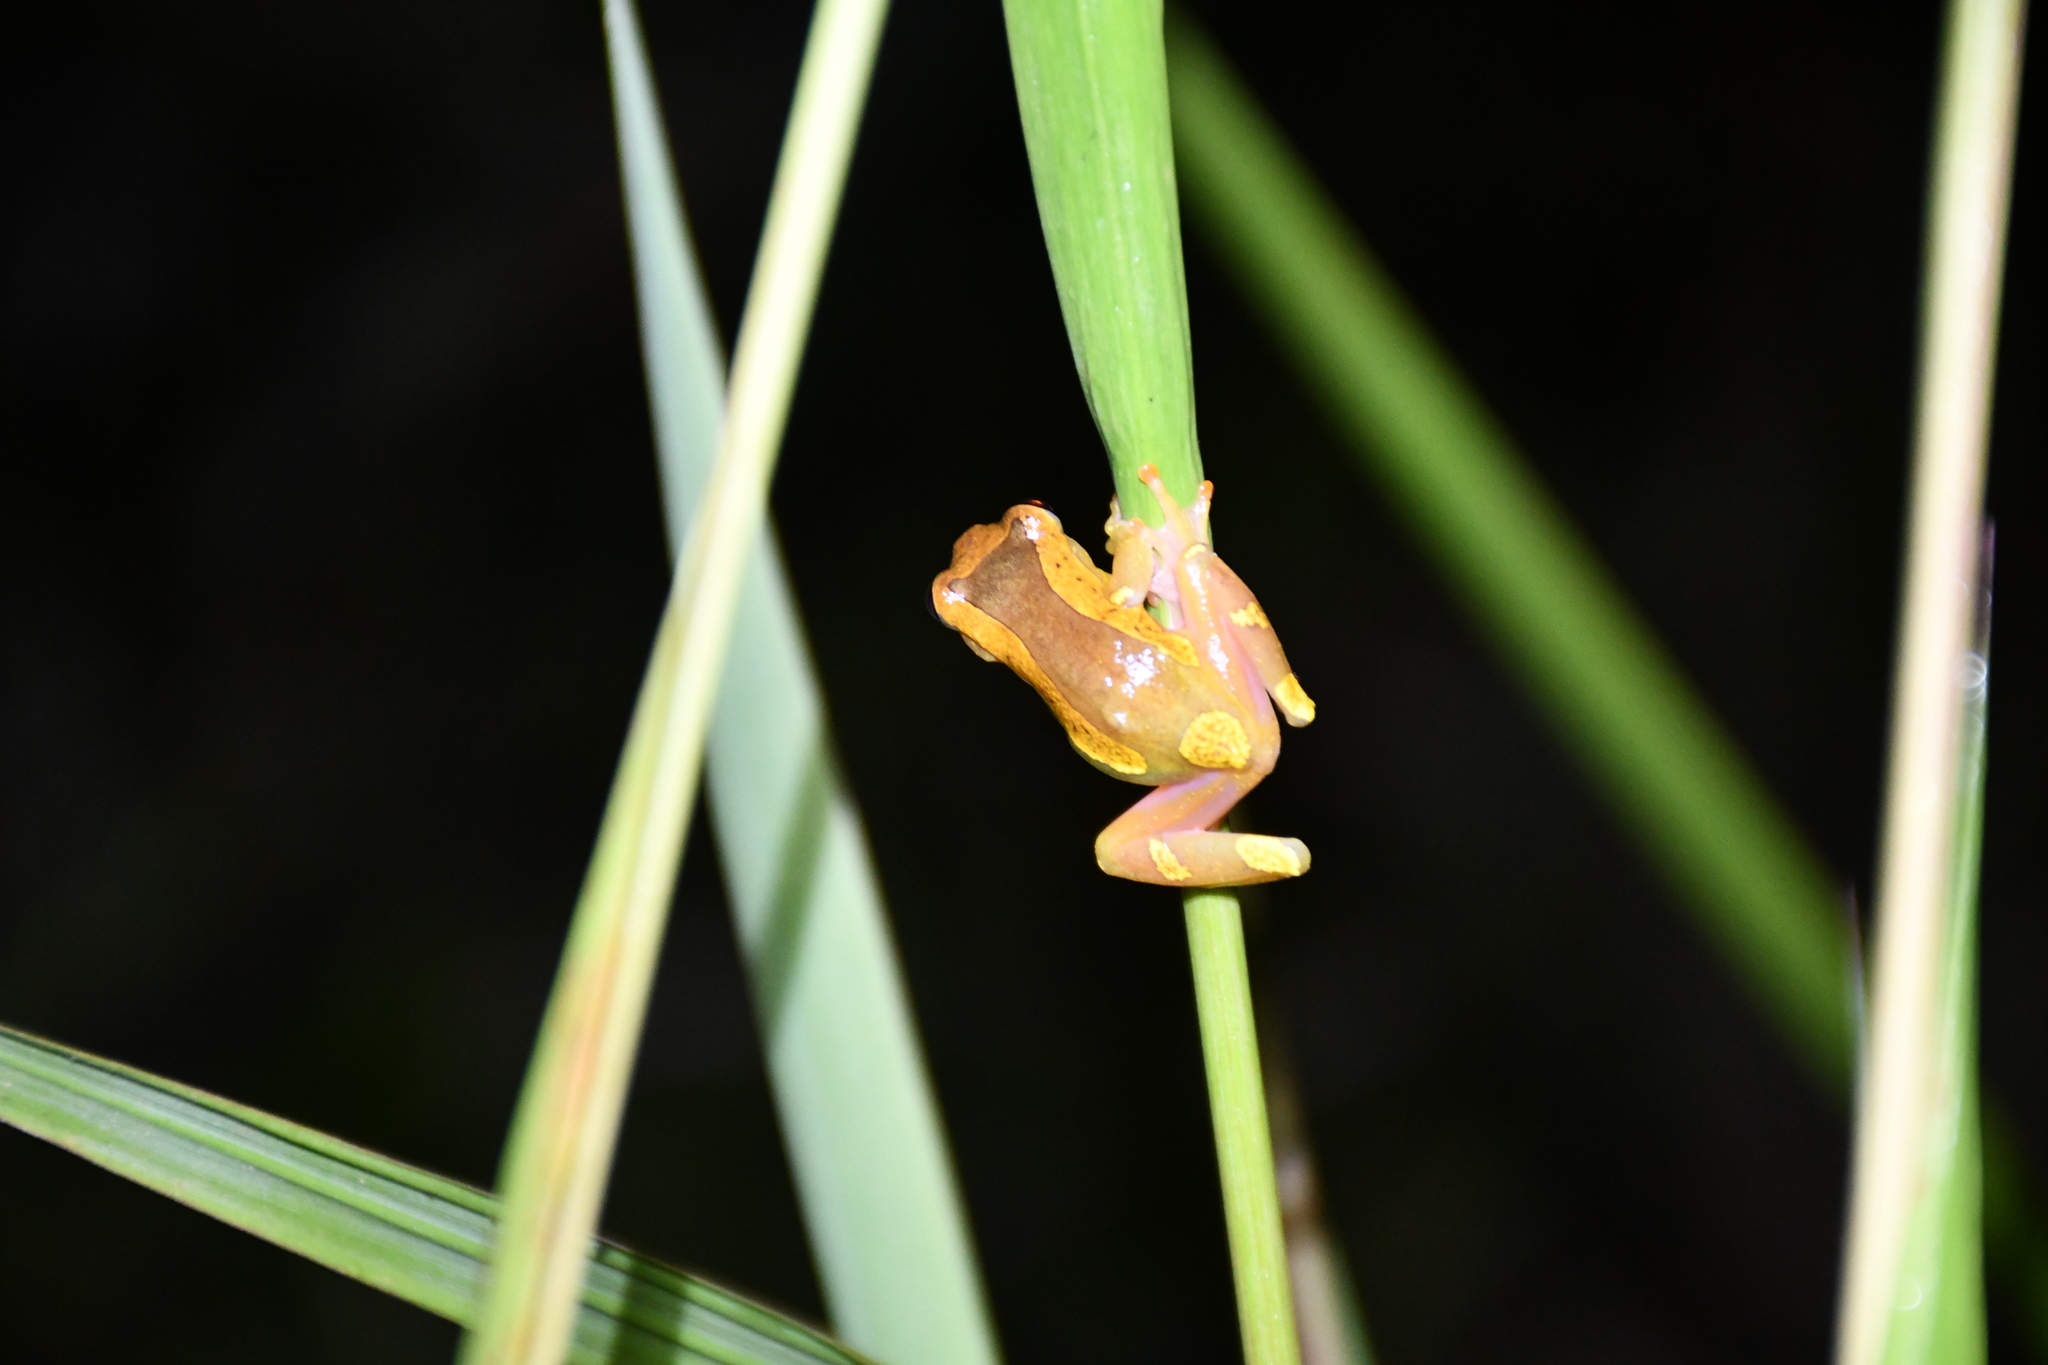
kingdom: Animalia
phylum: Chordata
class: Amphibia
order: Anura
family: Hylidae
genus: Dendropsophus
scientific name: Dendropsophus arndti
